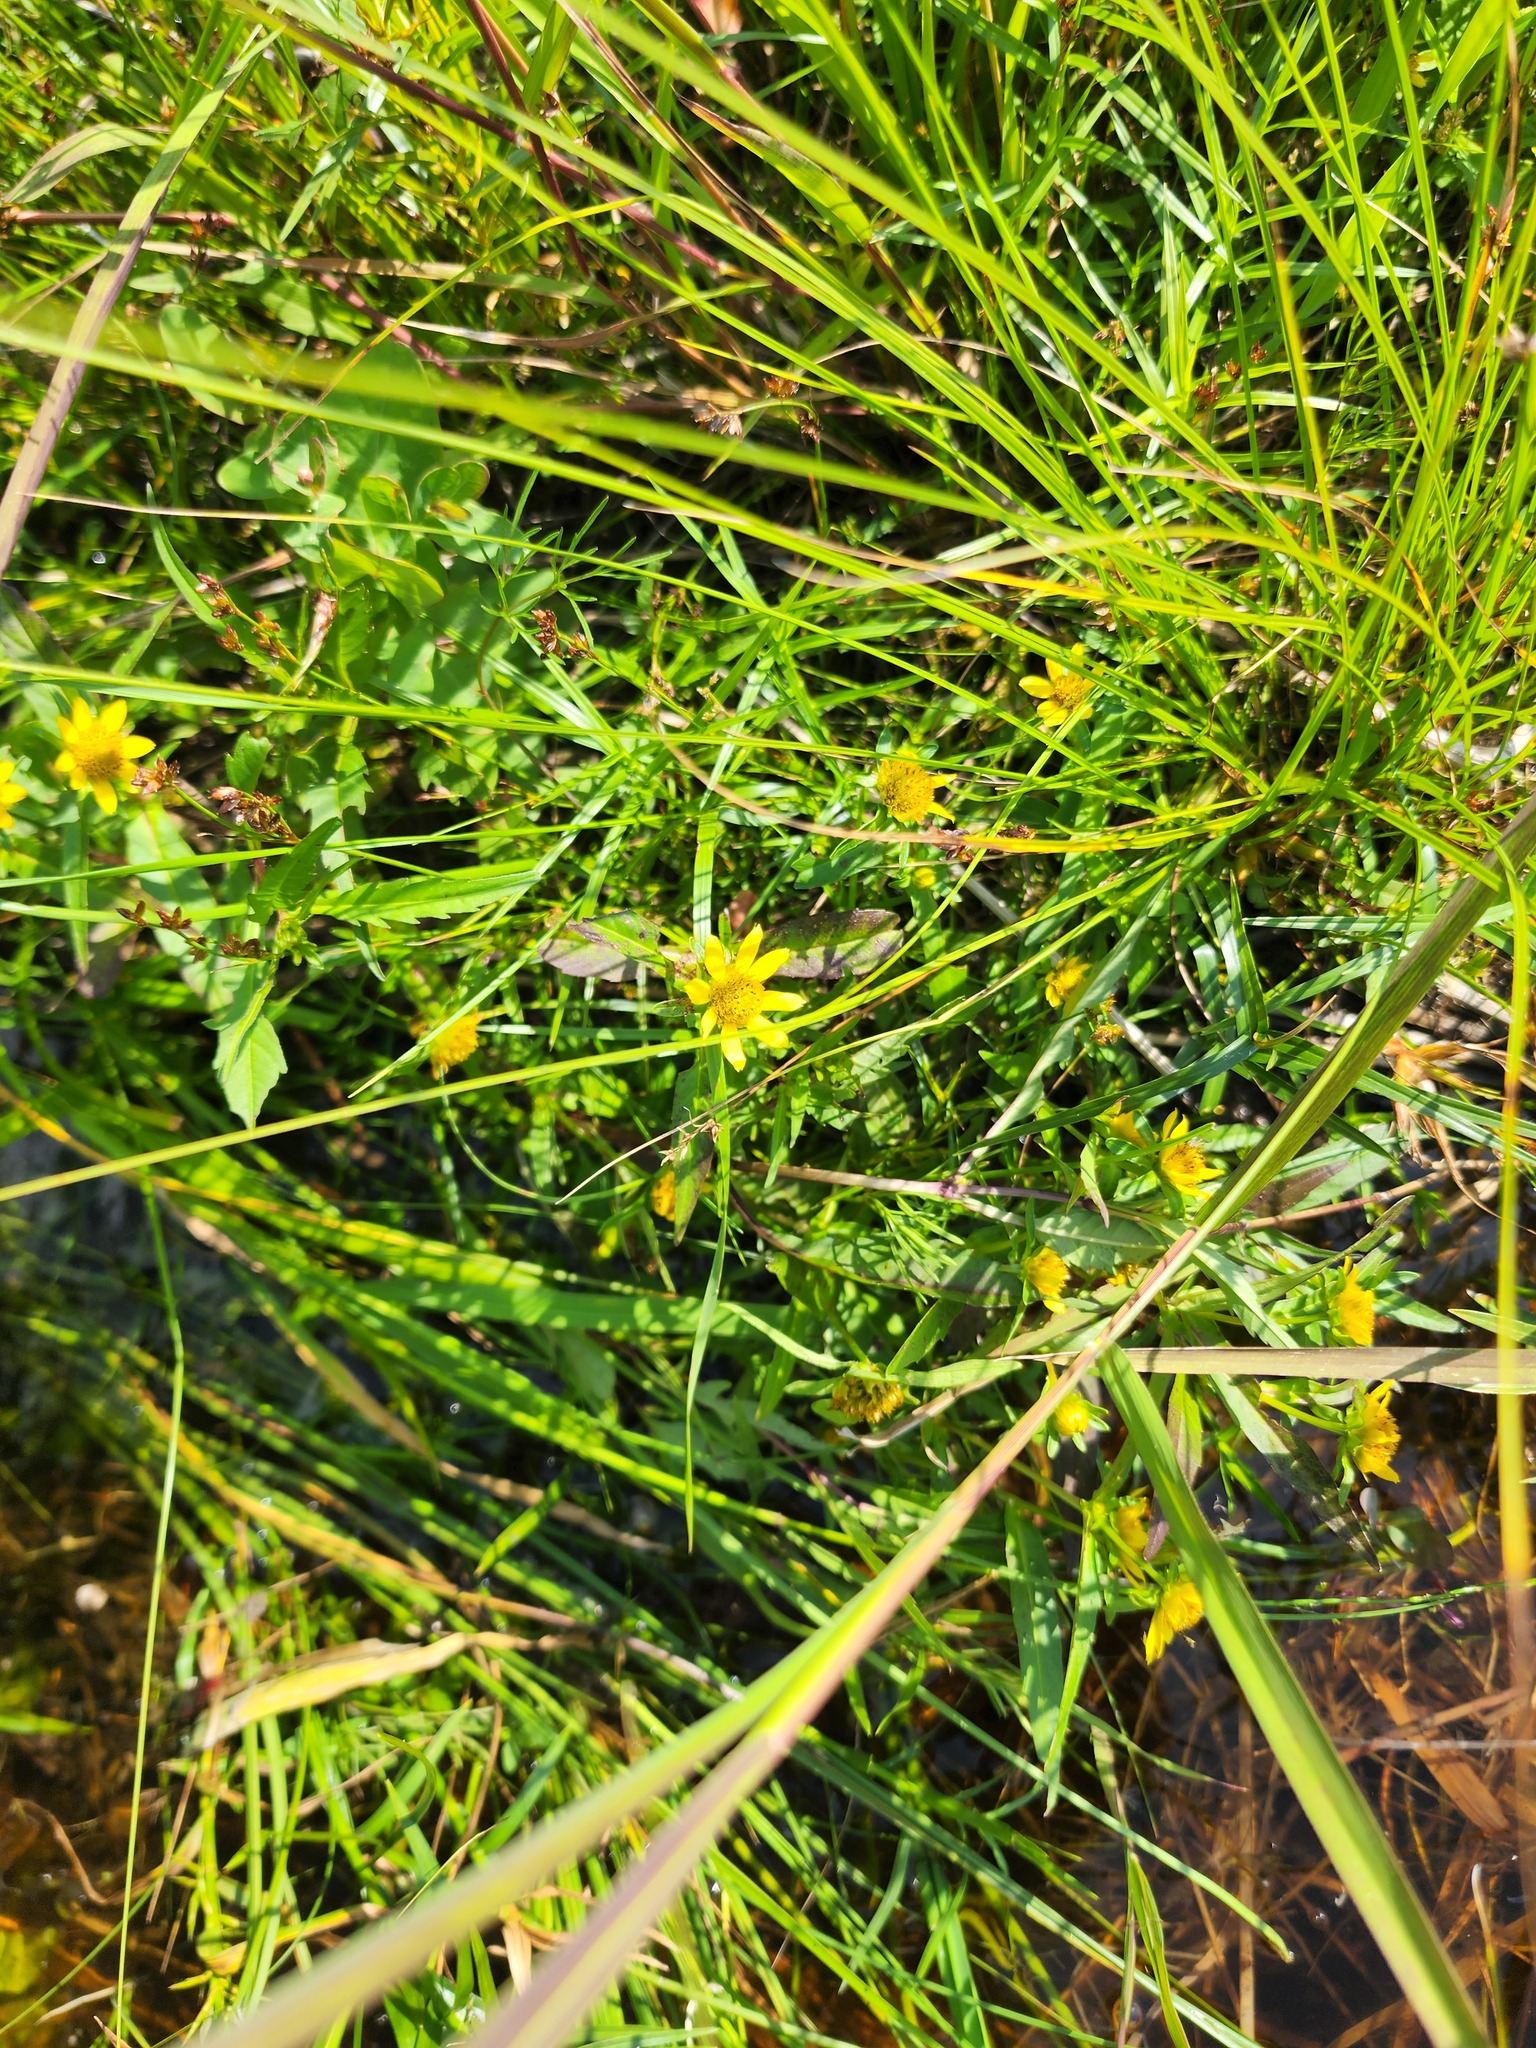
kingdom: Plantae
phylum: Tracheophyta
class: Magnoliopsida
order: Asterales
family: Asteraceae
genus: Bidens
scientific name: Bidens cernua
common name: Nodding bur-marigold
